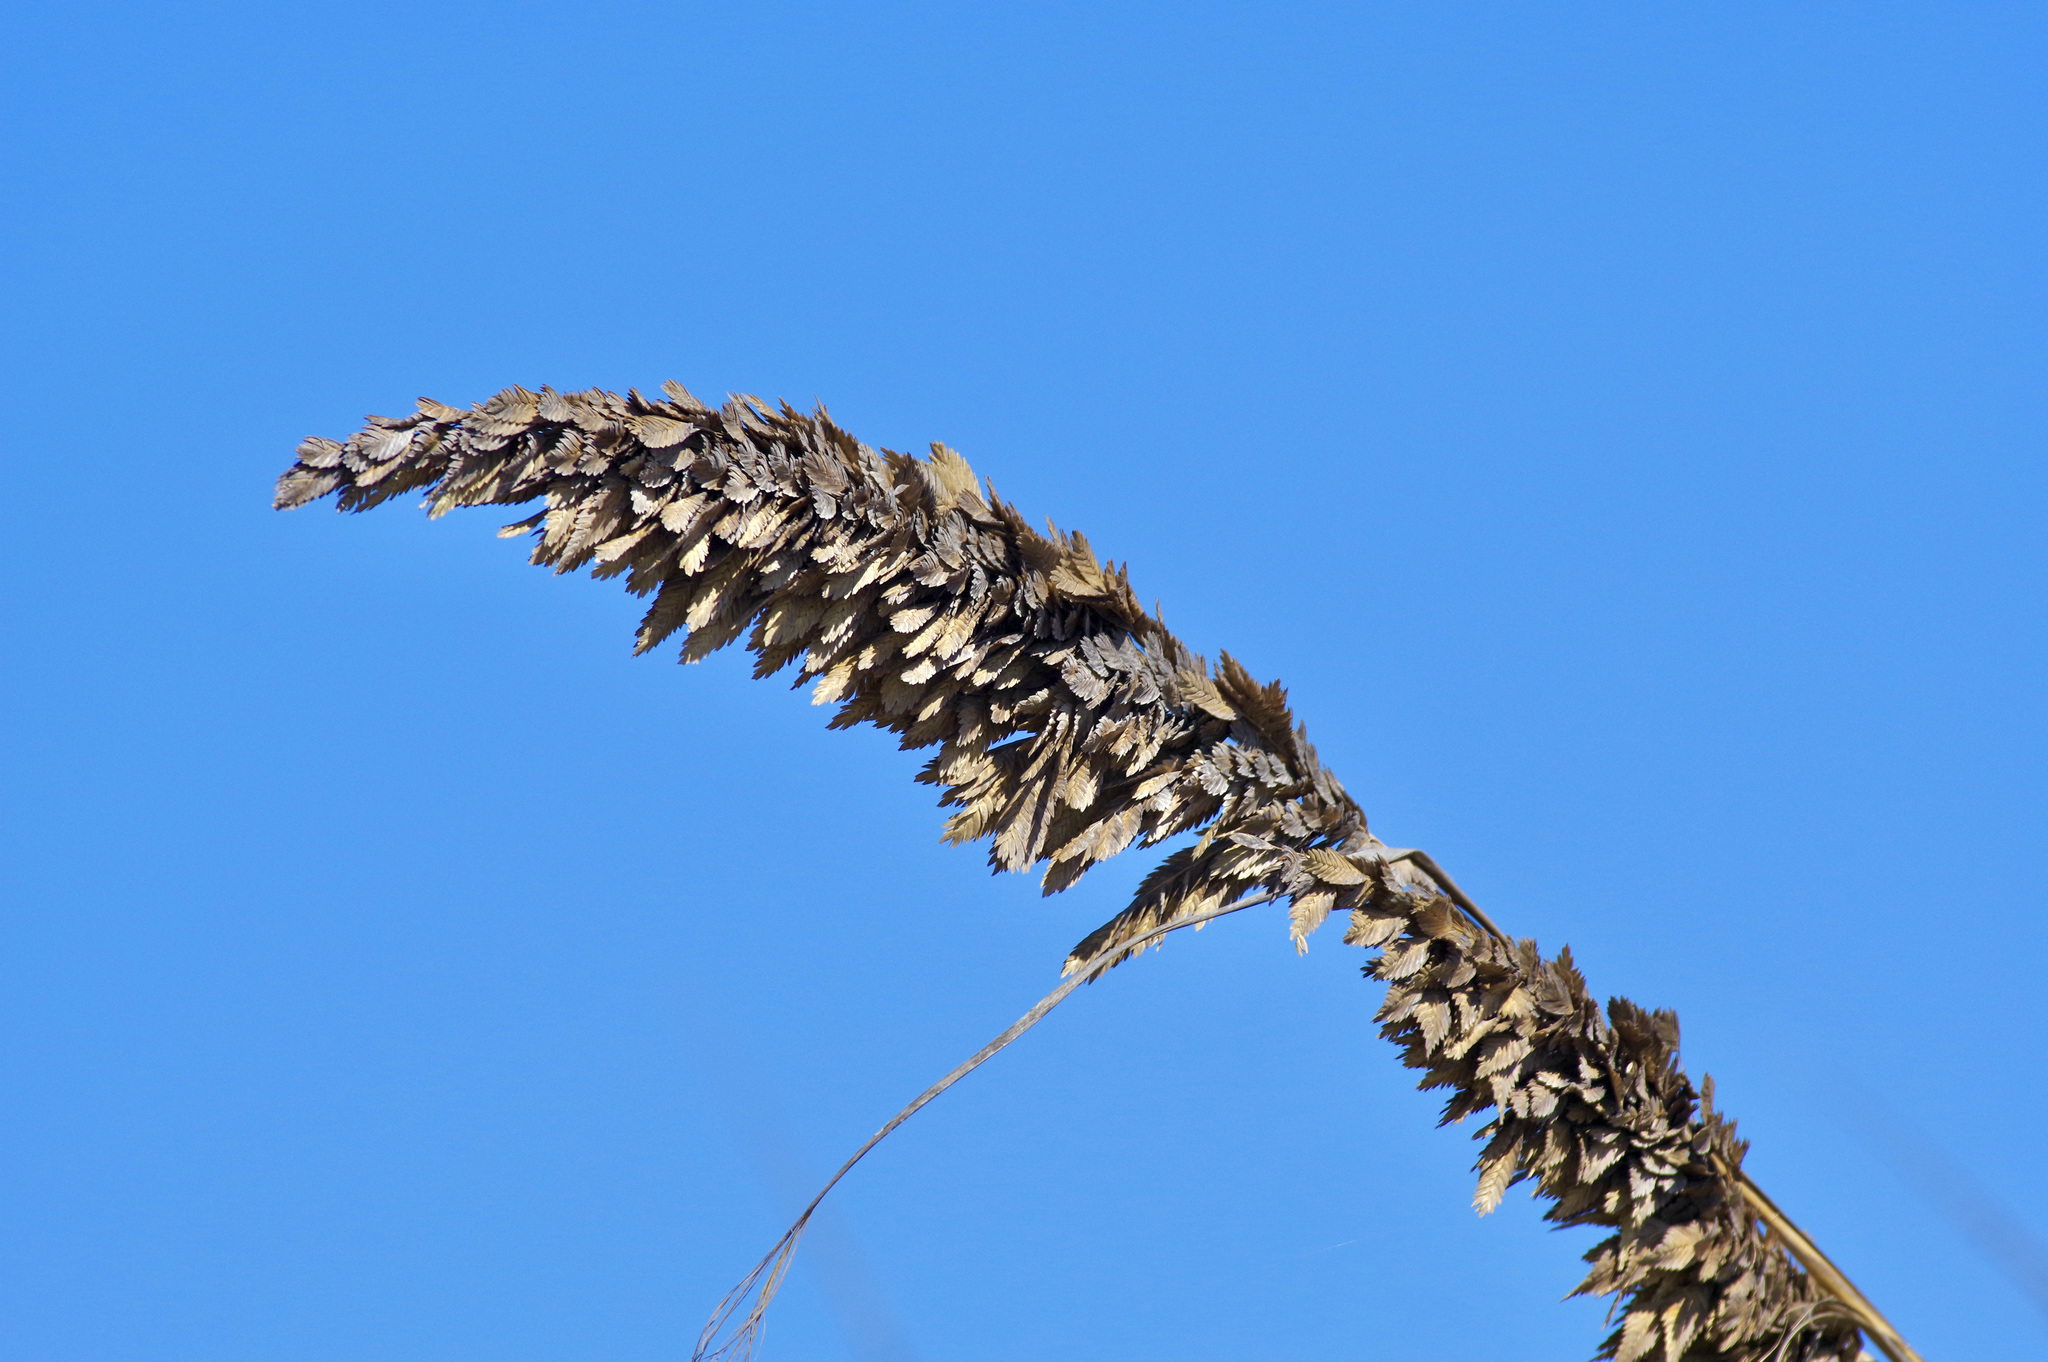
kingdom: Plantae
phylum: Tracheophyta
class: Liliopsida
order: Poales
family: Poaceae
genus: Uniola
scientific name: Uniola paniculata
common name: Seaside-oats
